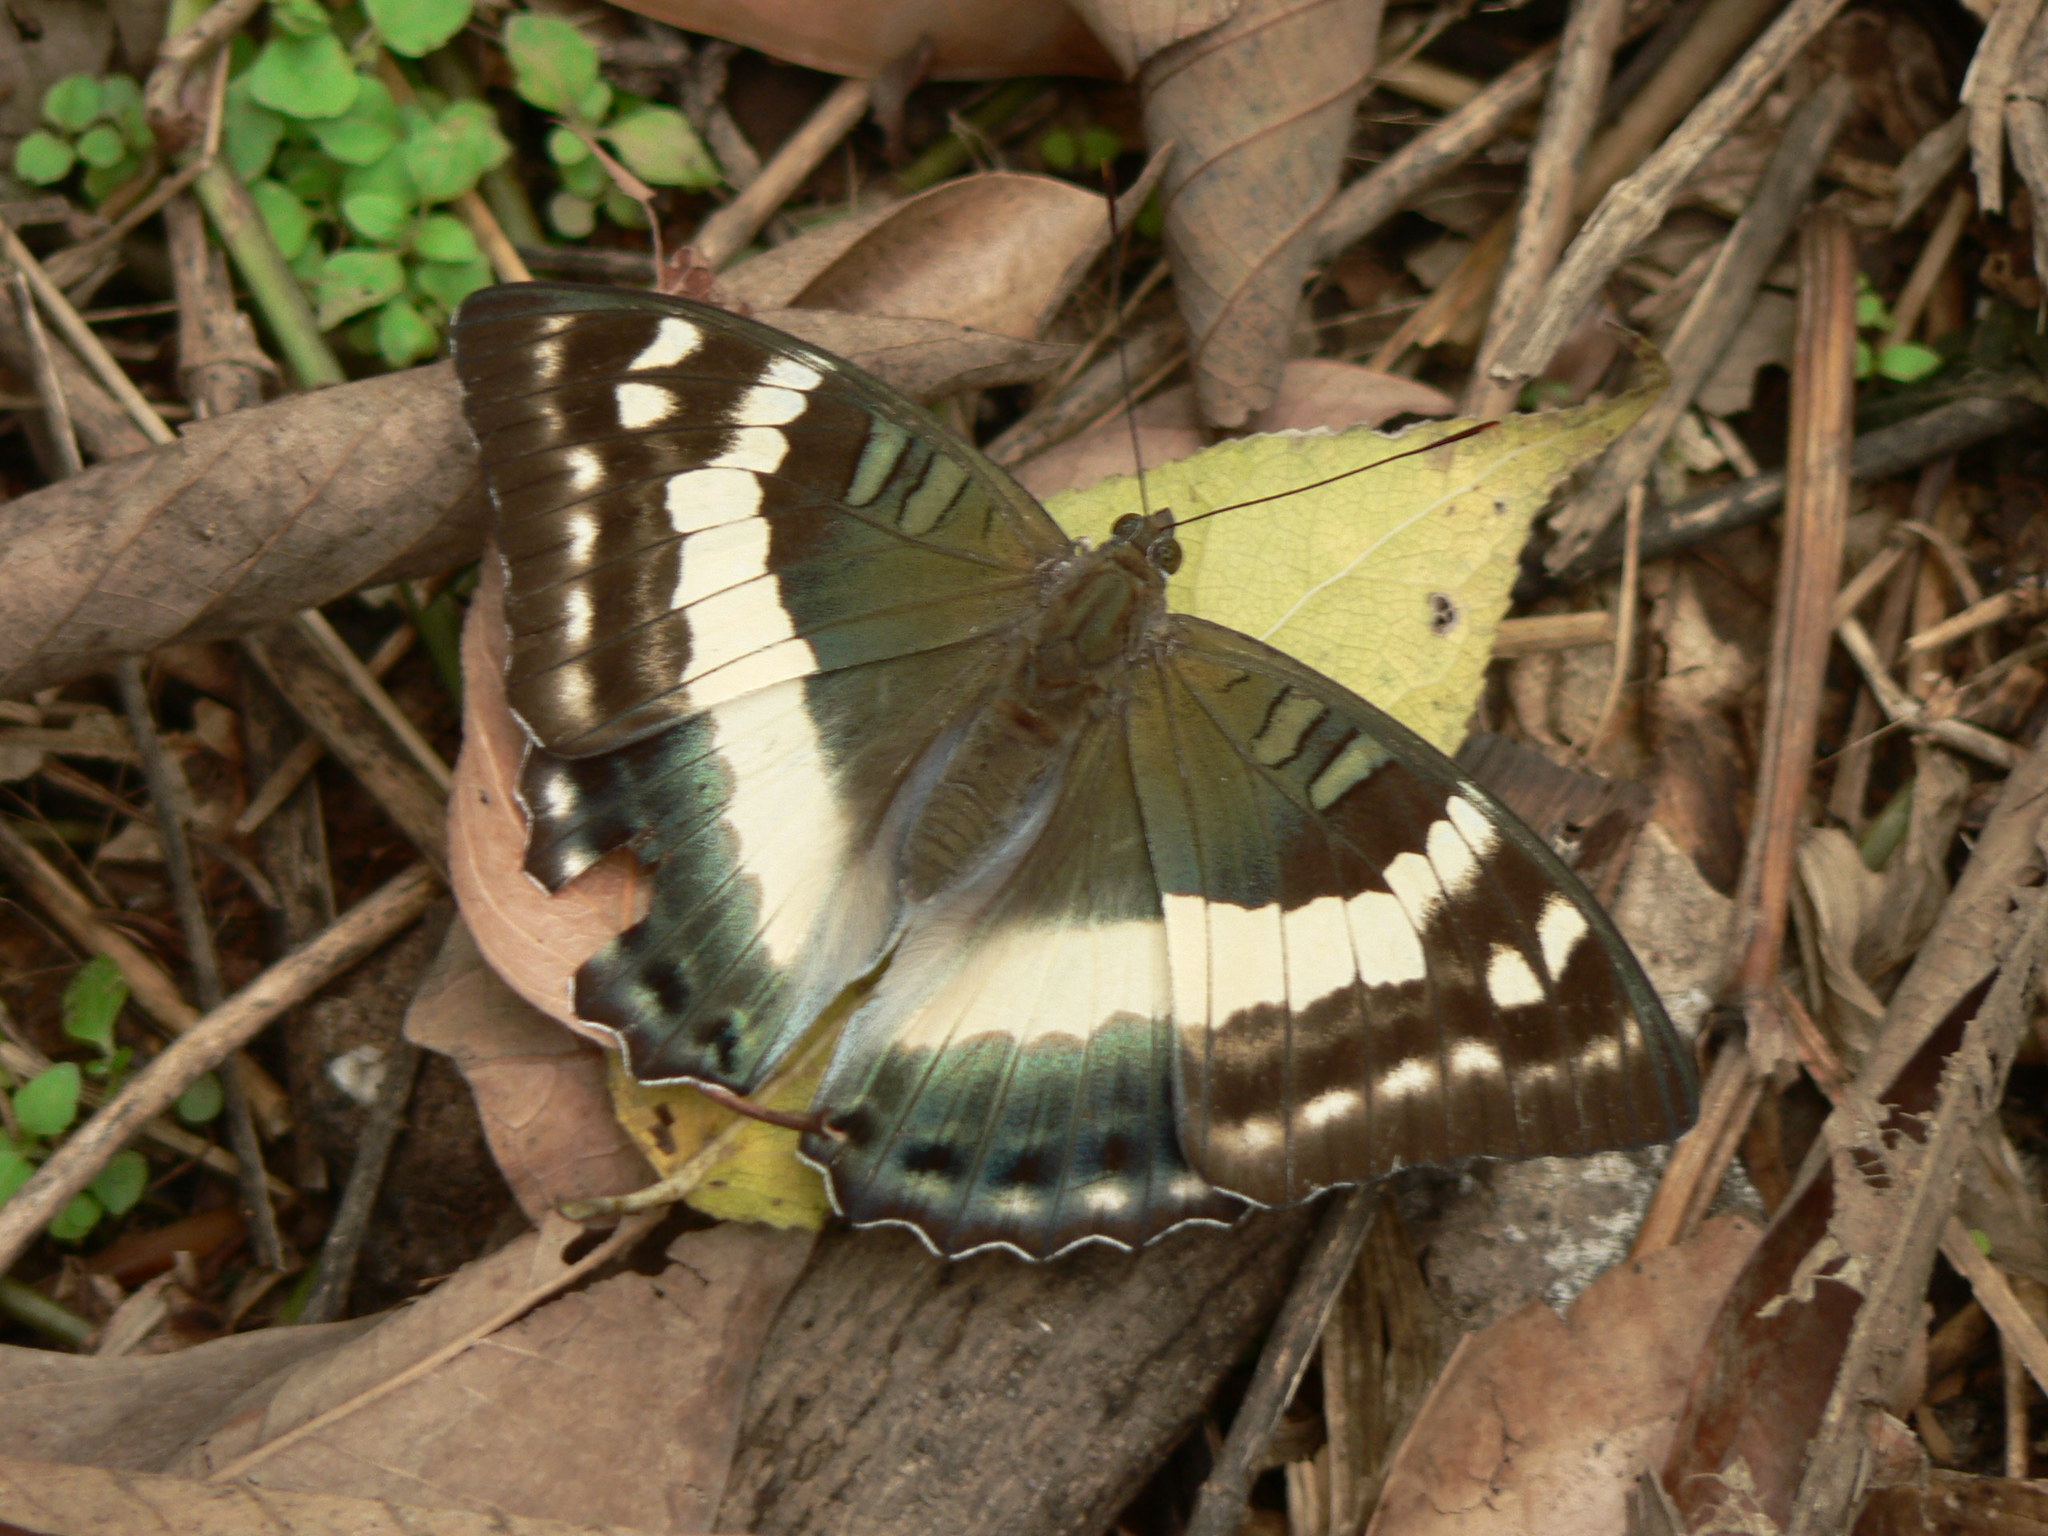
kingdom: Animalia
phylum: Arthropoda
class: Insecta
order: Lepidoptera
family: Nymphalidae
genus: Euthalia
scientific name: Euthalia franciae
